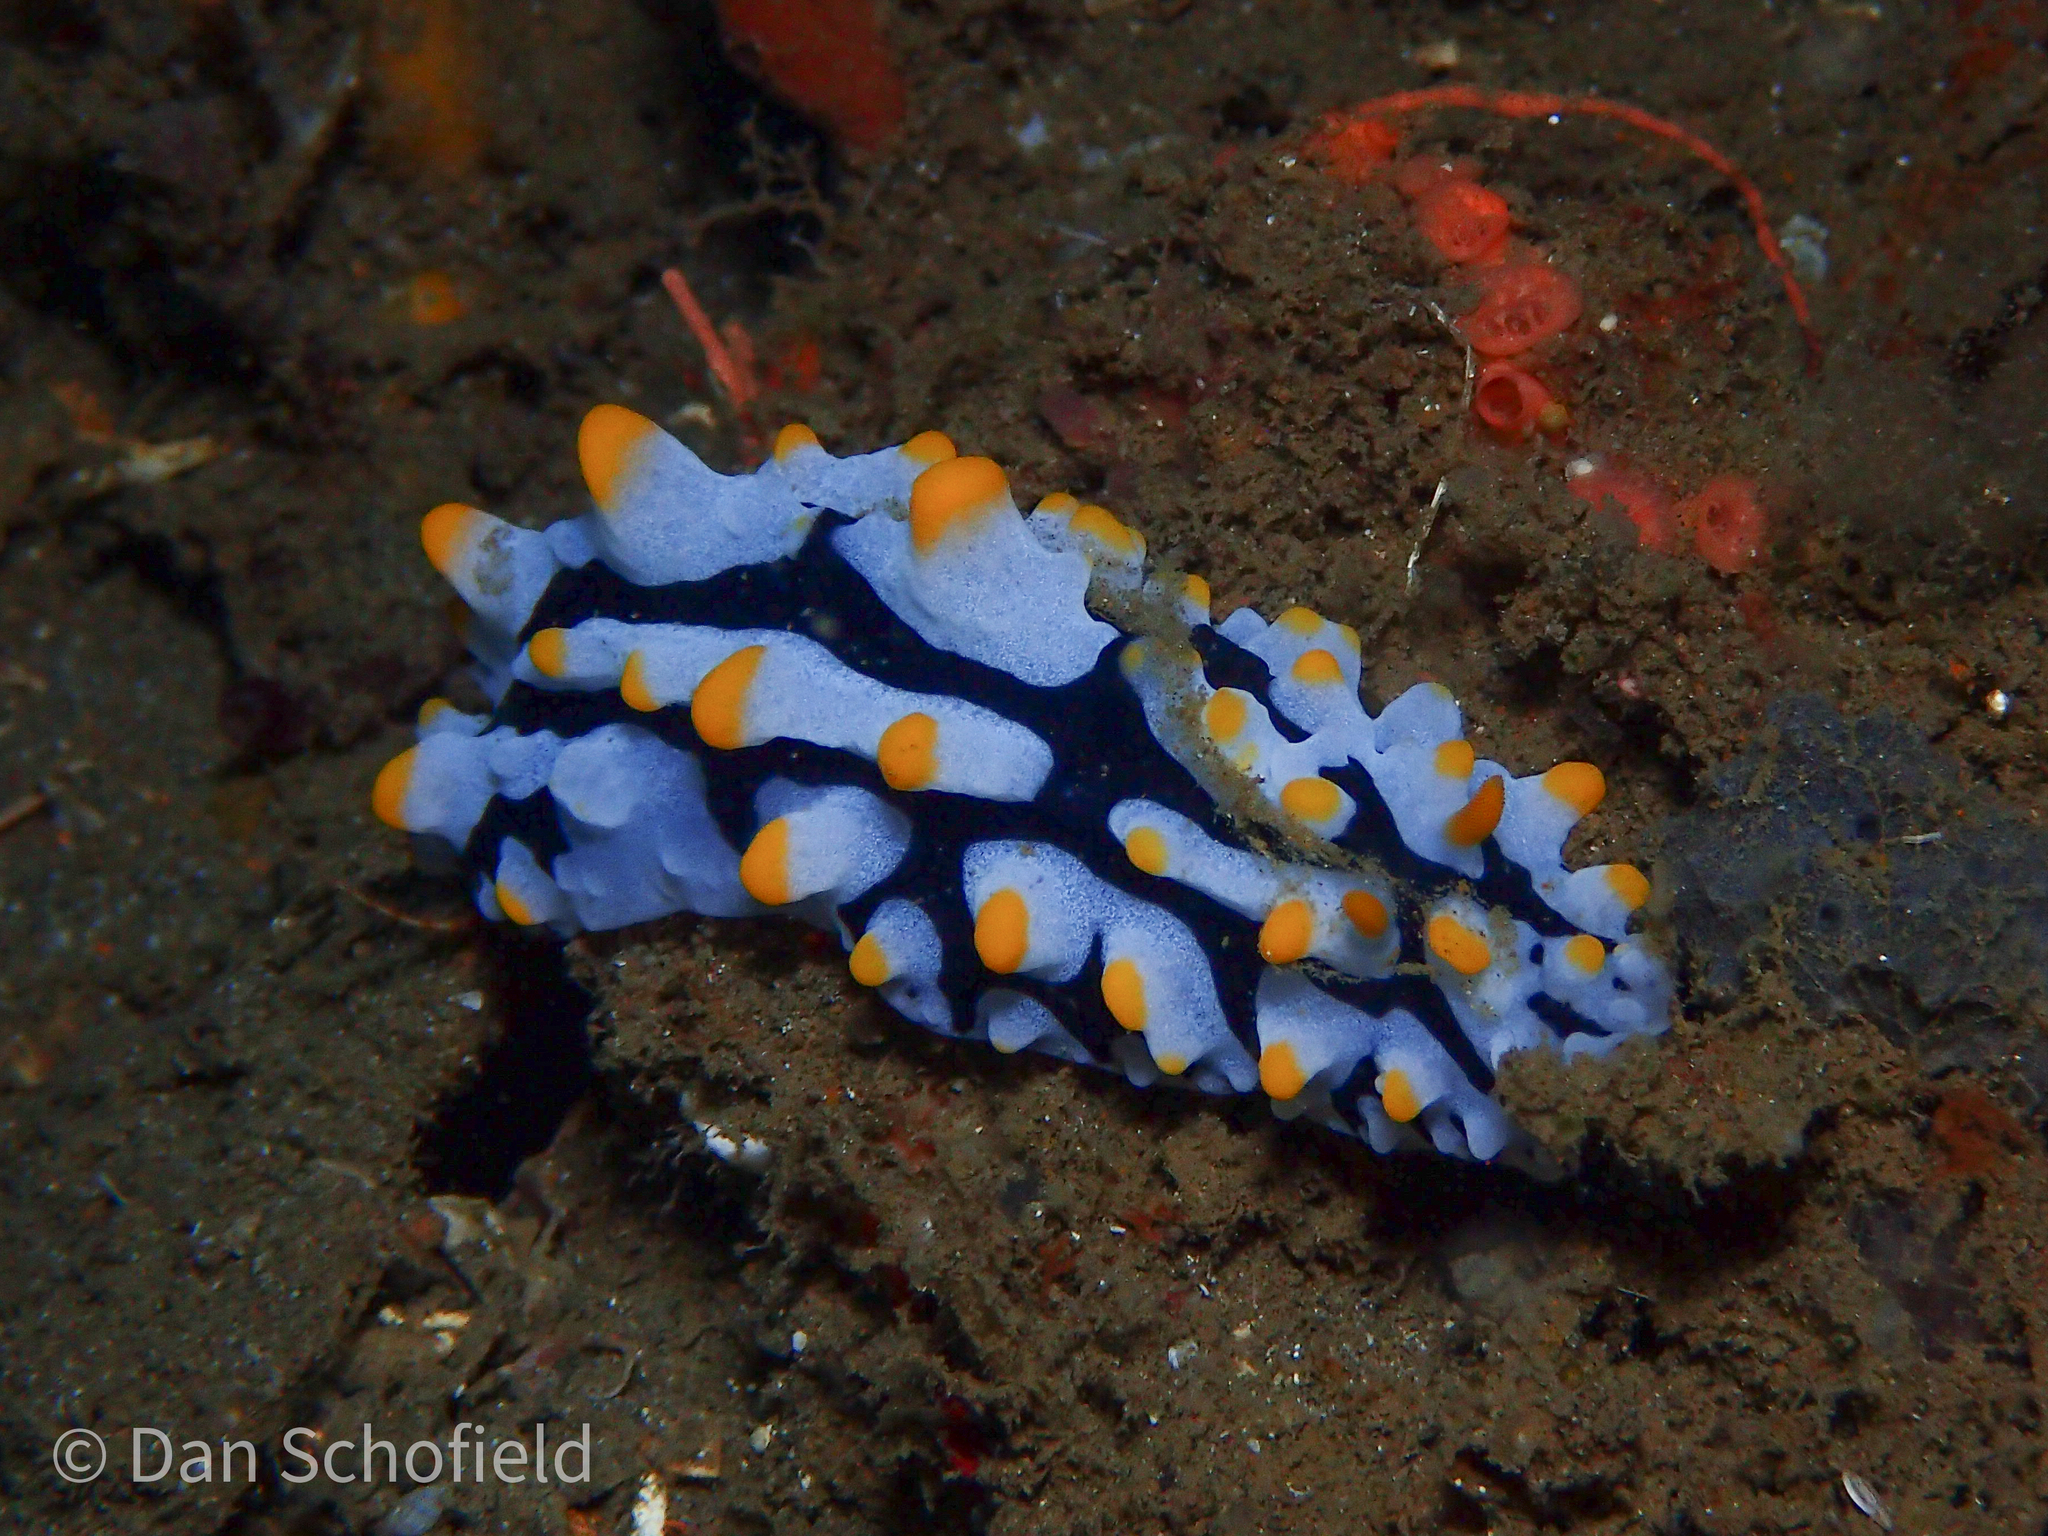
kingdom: Animalia
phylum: Mollusca
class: Gastropoda
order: Nudibranchia
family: Phyllidiidae
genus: Phyllidia
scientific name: Phyllidia varicosa
